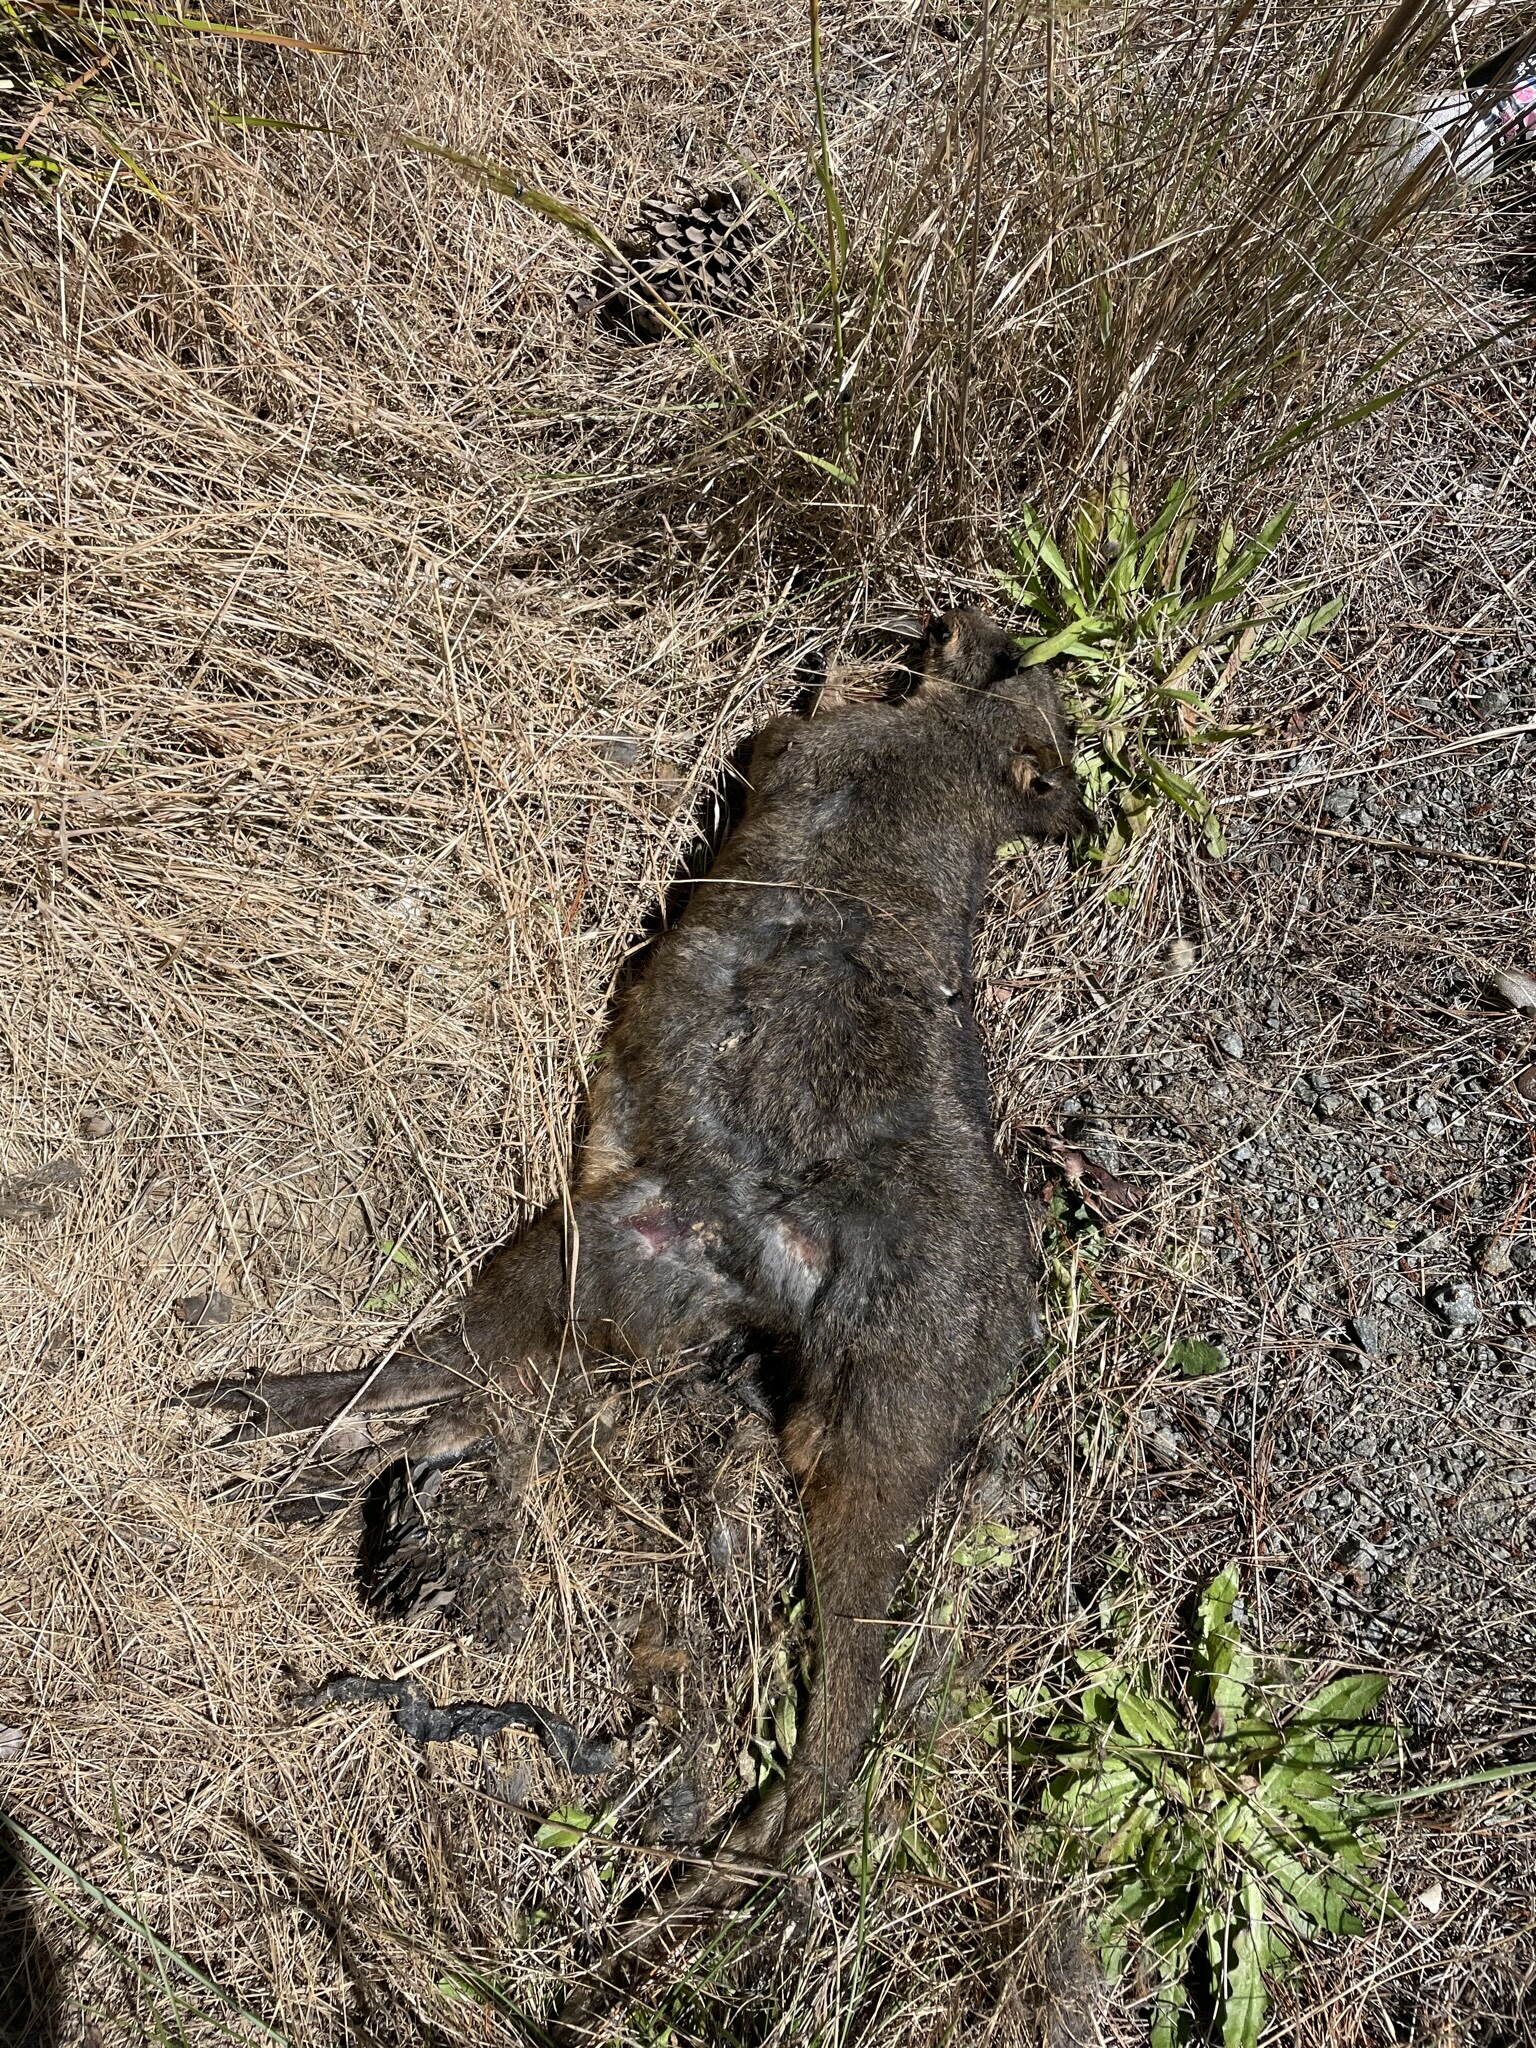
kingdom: Animalia
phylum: Chordata
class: Mammalia
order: Diprotodontia
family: Macropodidae
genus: Thylogale
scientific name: Thylogale billardierii
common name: Tasmanian pademelon
